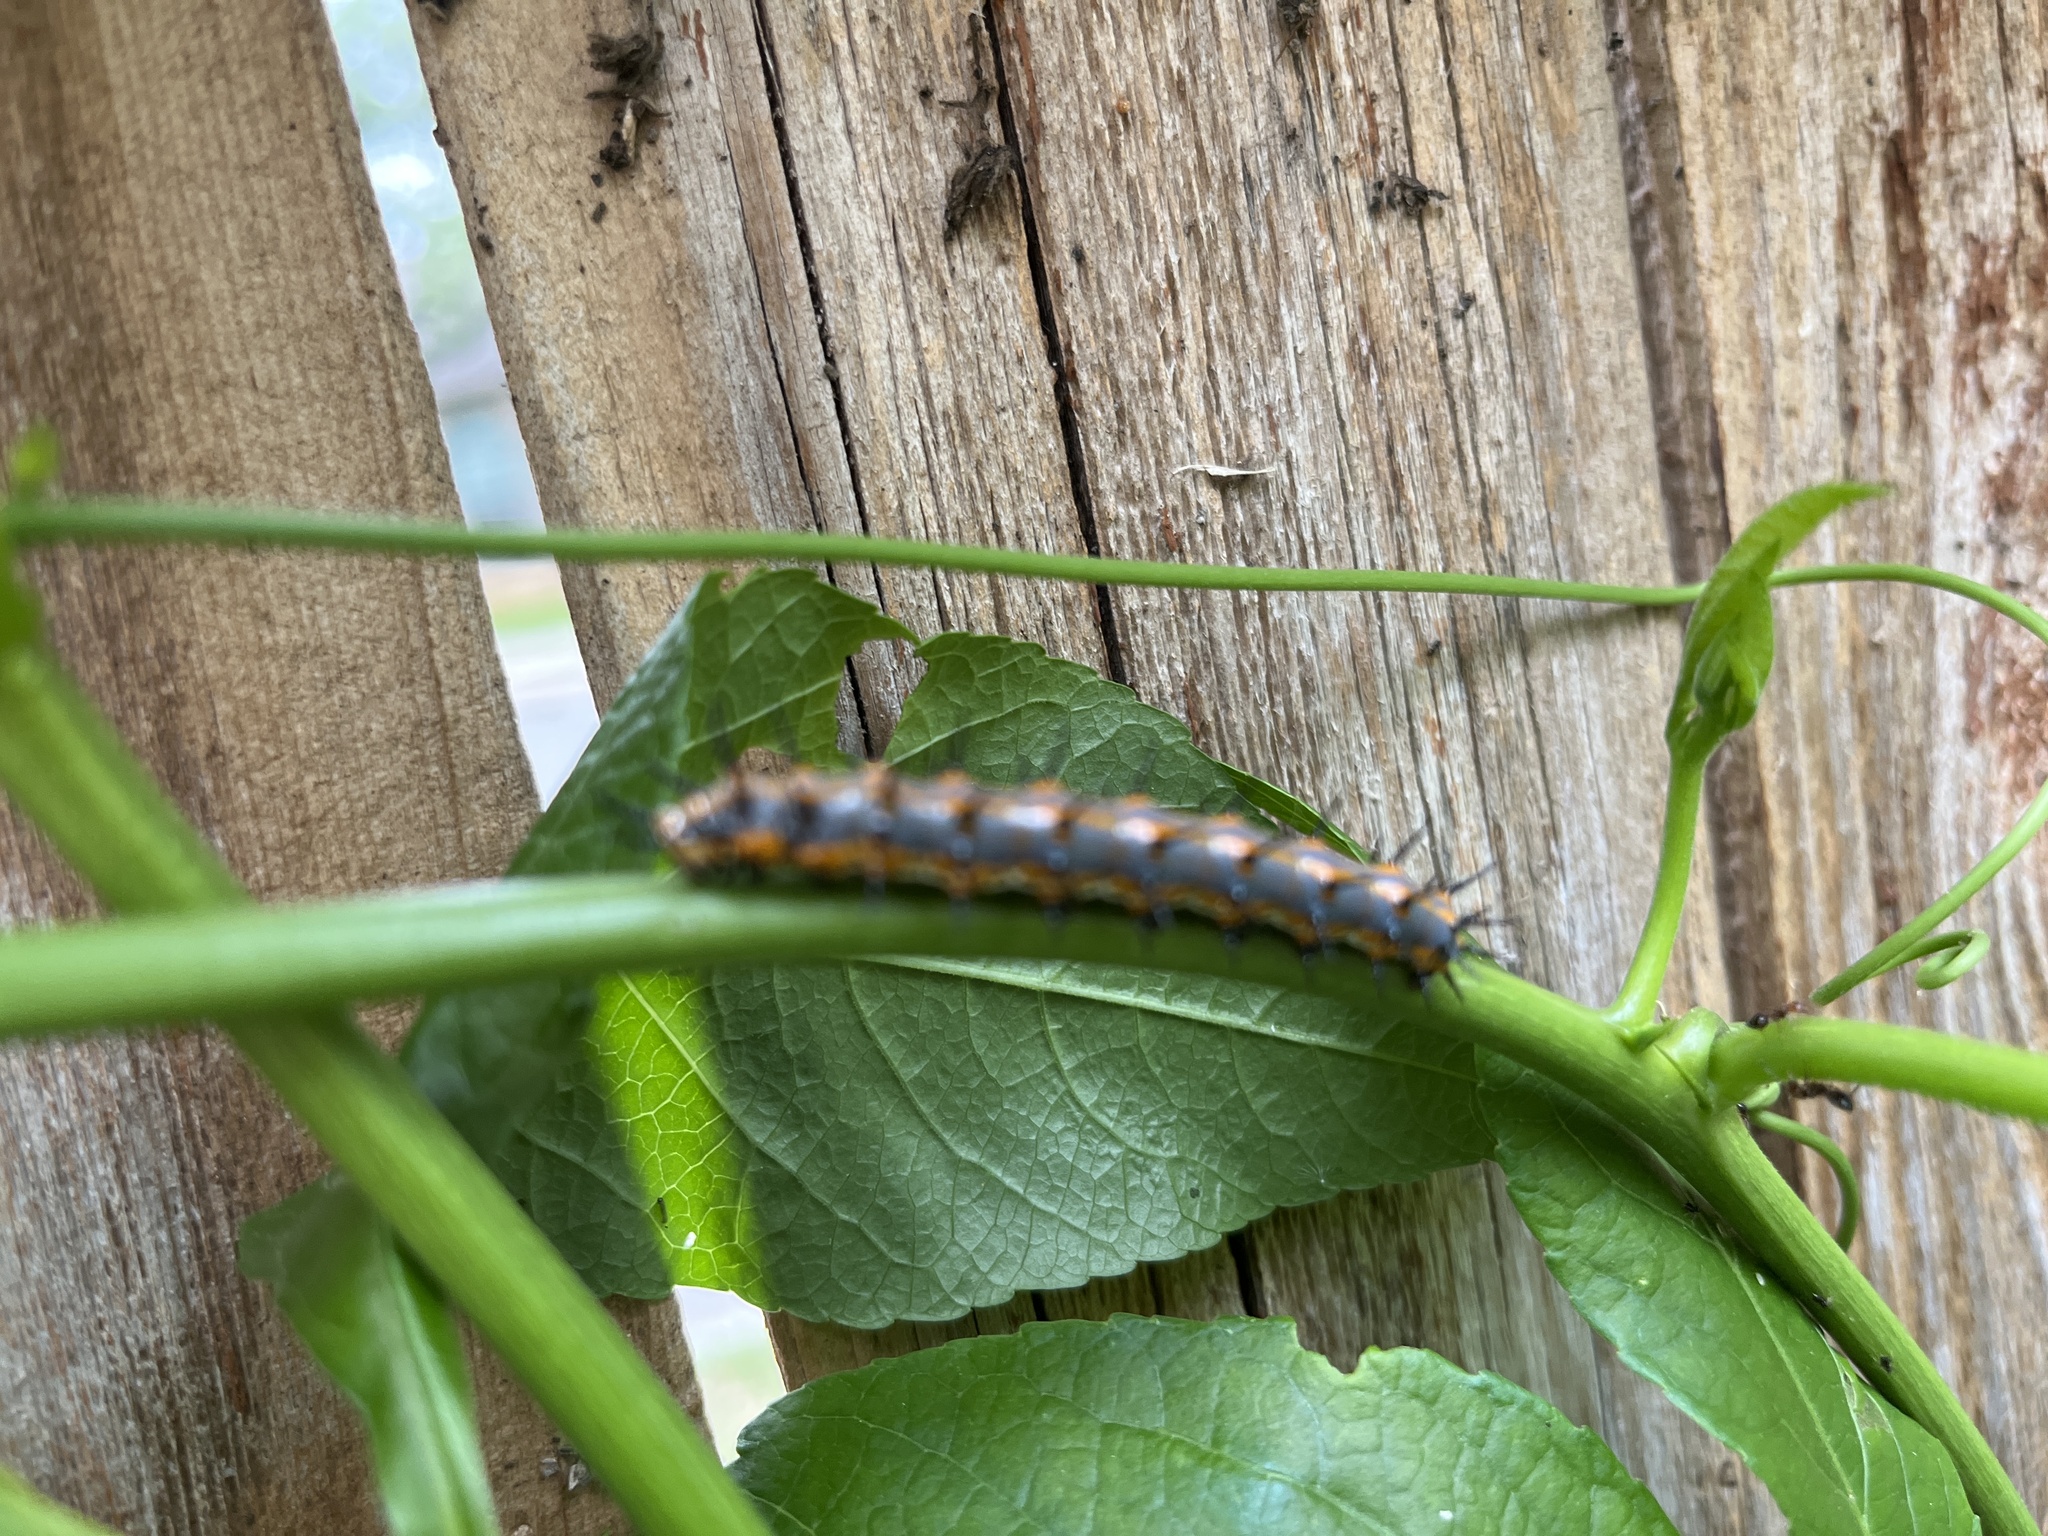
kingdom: Animalia
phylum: Arthropoda
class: Insecta
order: Lepidoptera
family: Nymphalidae
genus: Dione
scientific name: Dione vanillae
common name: Gulf fritillary
